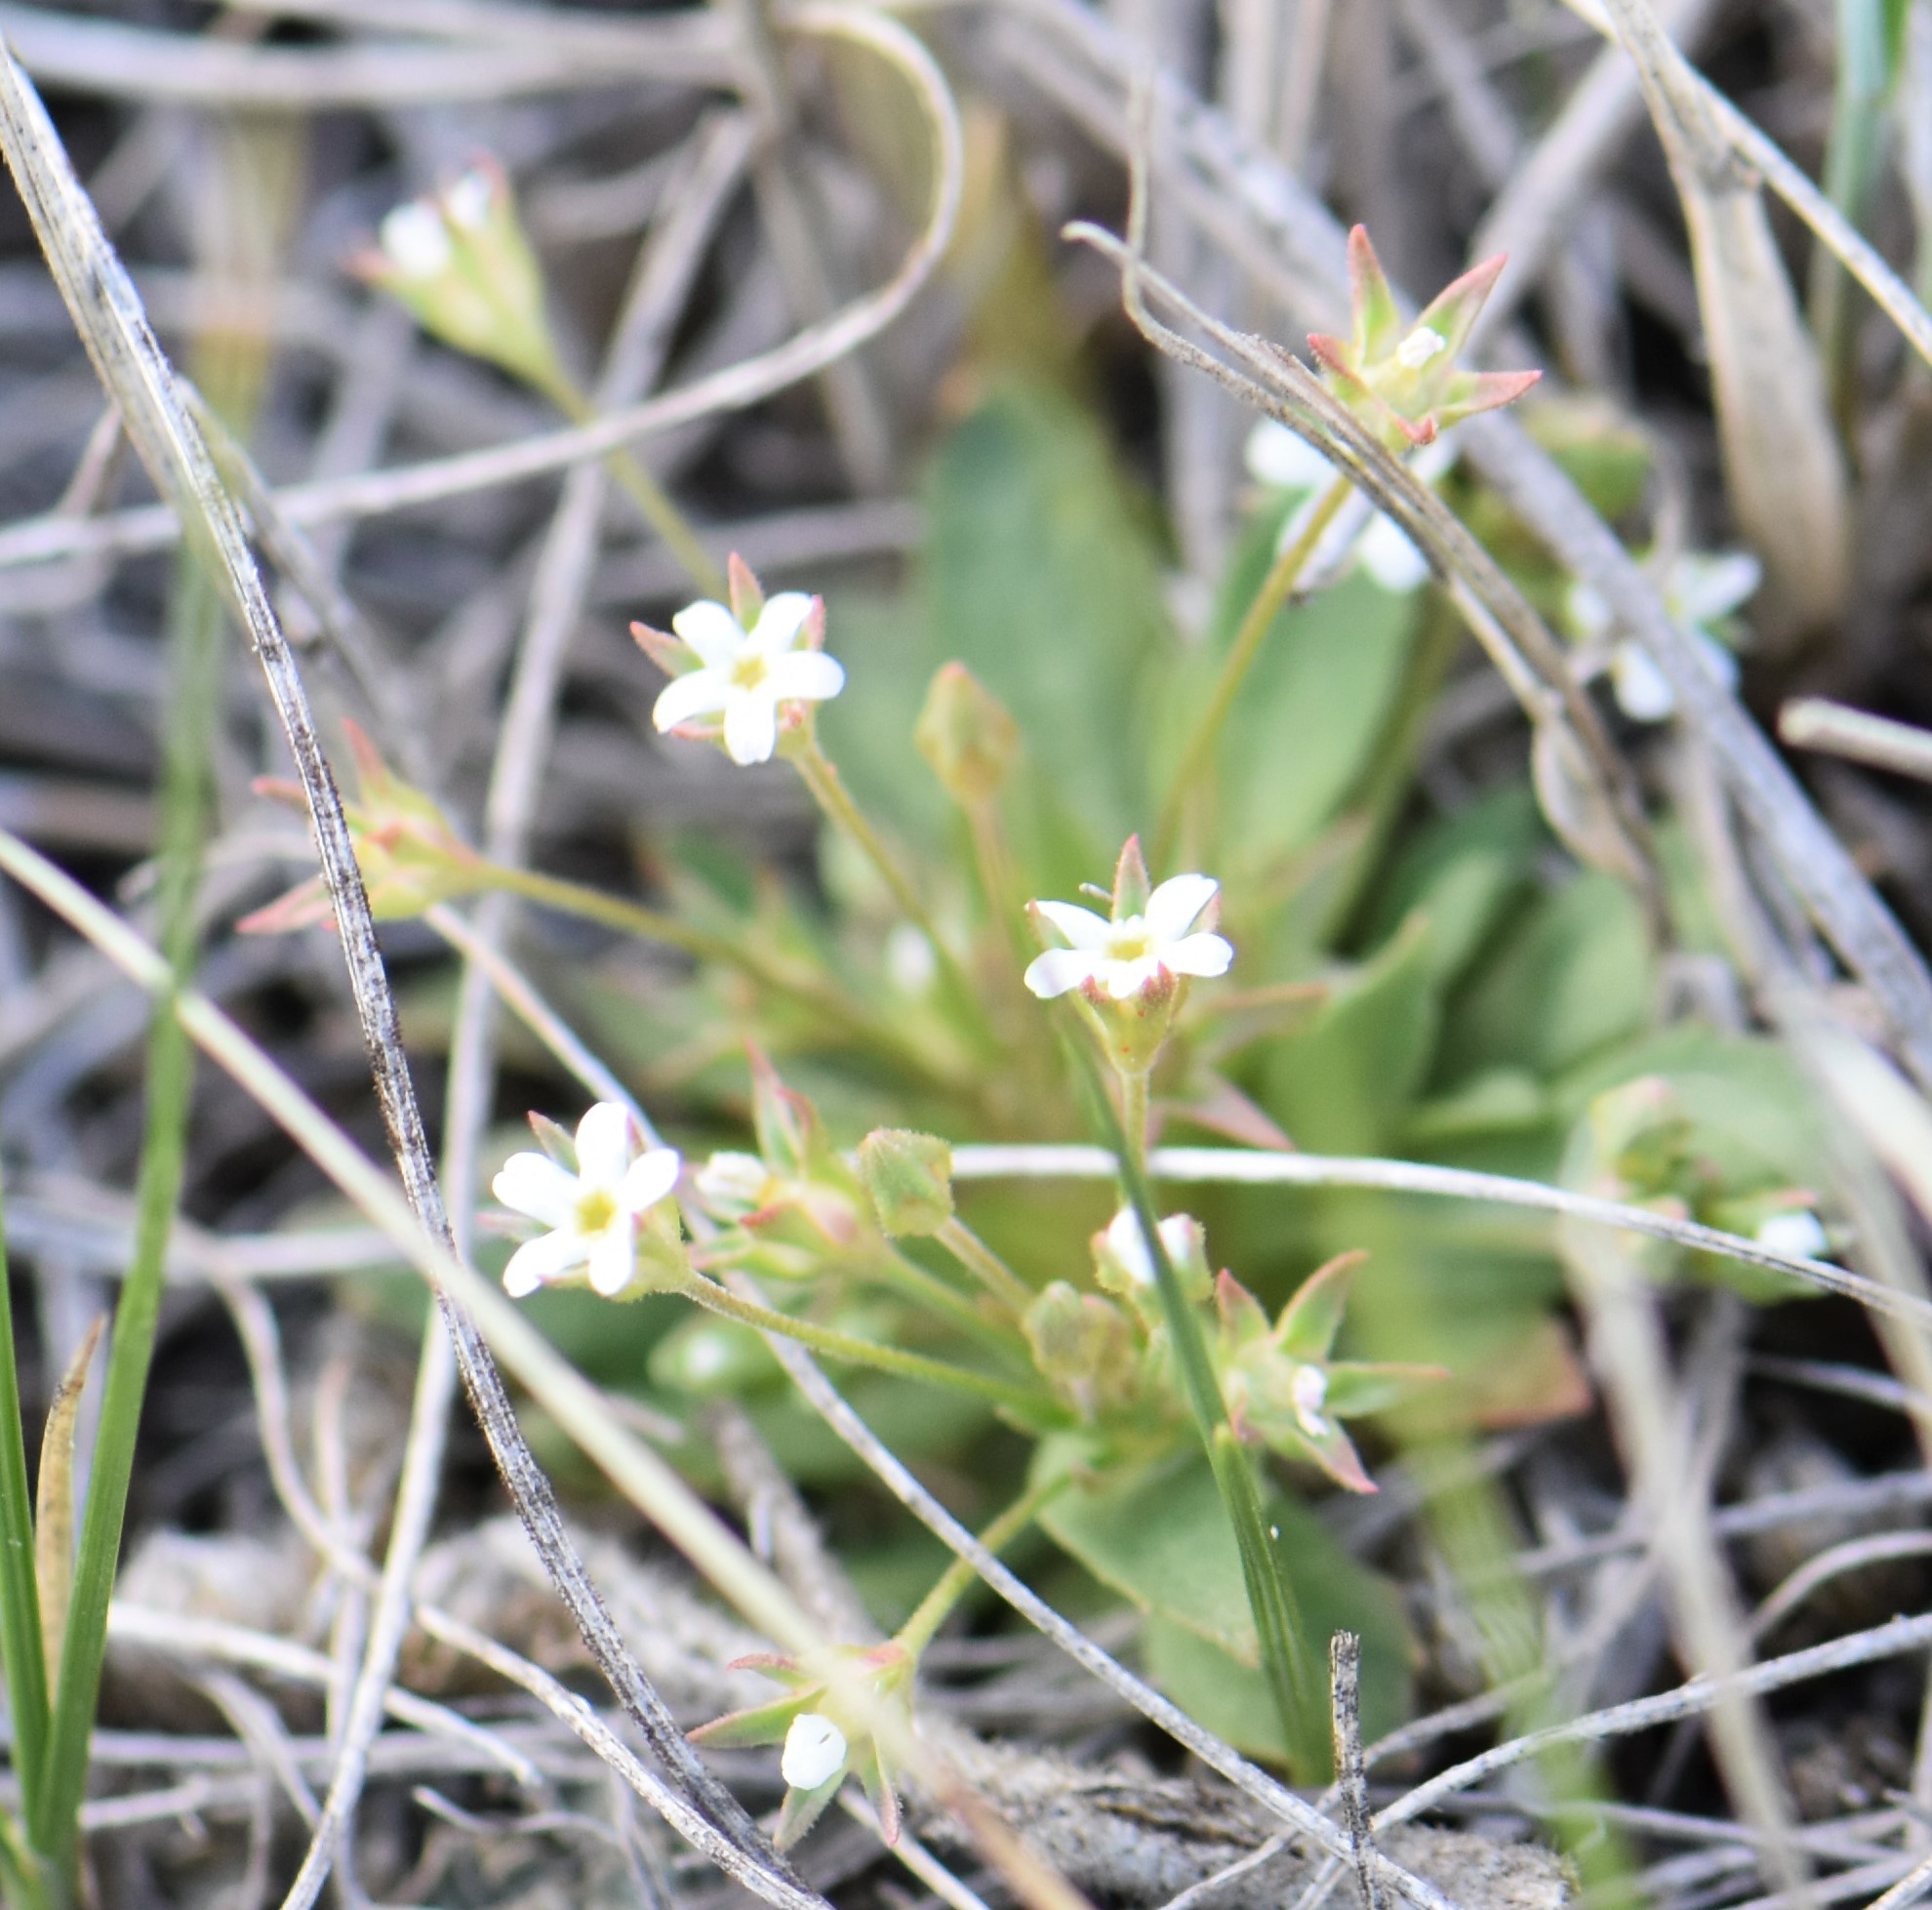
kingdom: Plantae
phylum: Tracheophyta
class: Magnoliopsida
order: Ericales
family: Primulaceae
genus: Androsace
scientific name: Androsace septentrionalis
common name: Hairy northern fairy-candelabra
